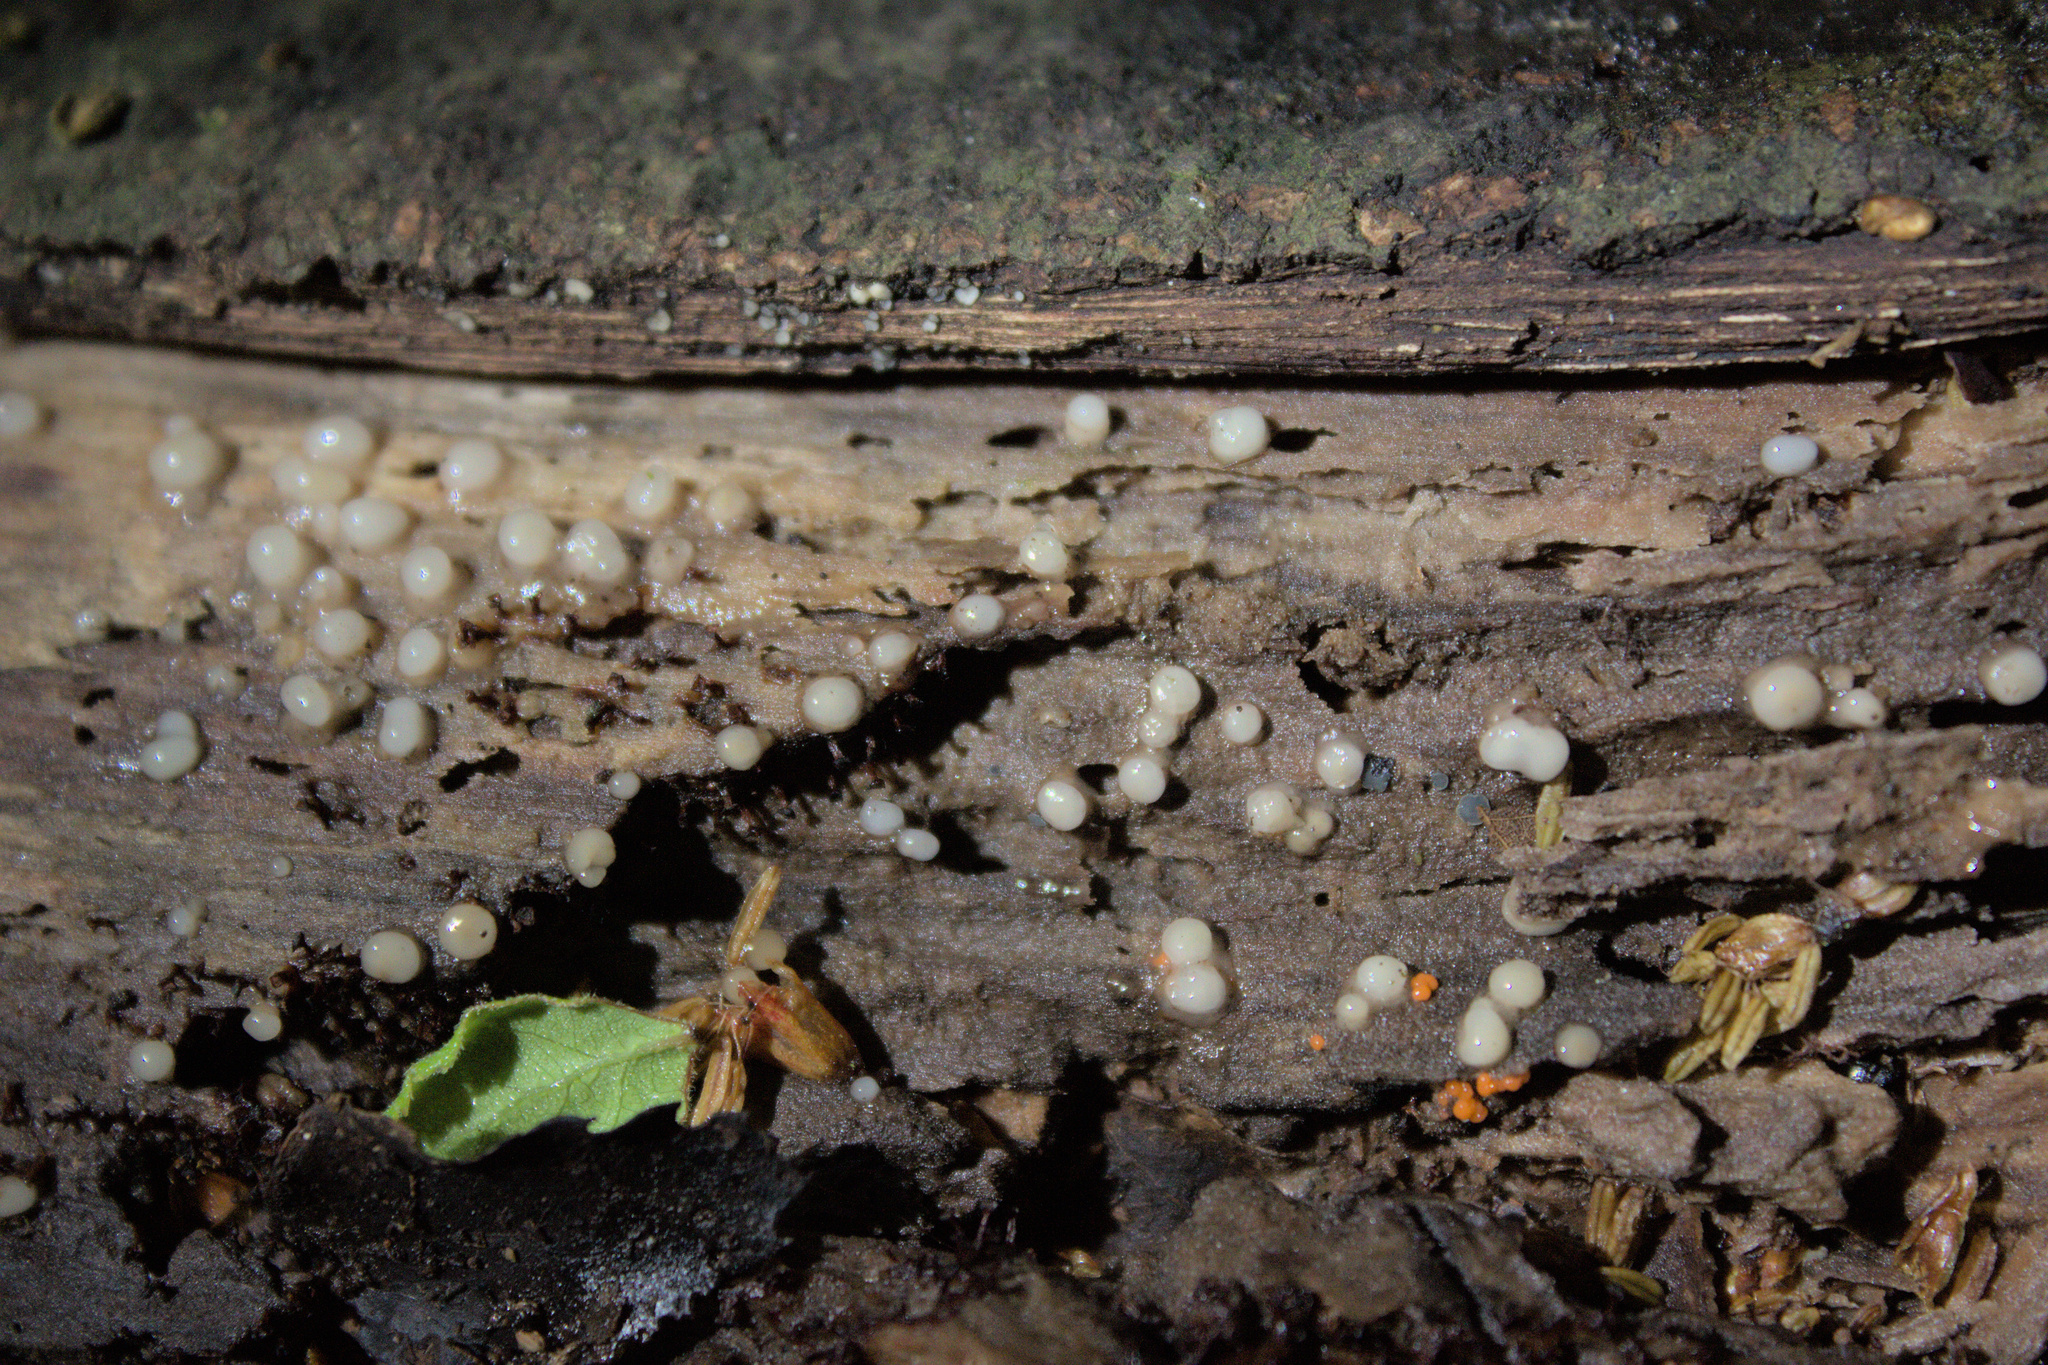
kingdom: Fungi
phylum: Basidiomycota
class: Atractiellomycetes
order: Atractiellales
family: Phleogenaceae
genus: Helicogloea
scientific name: Helicogloea compressa
